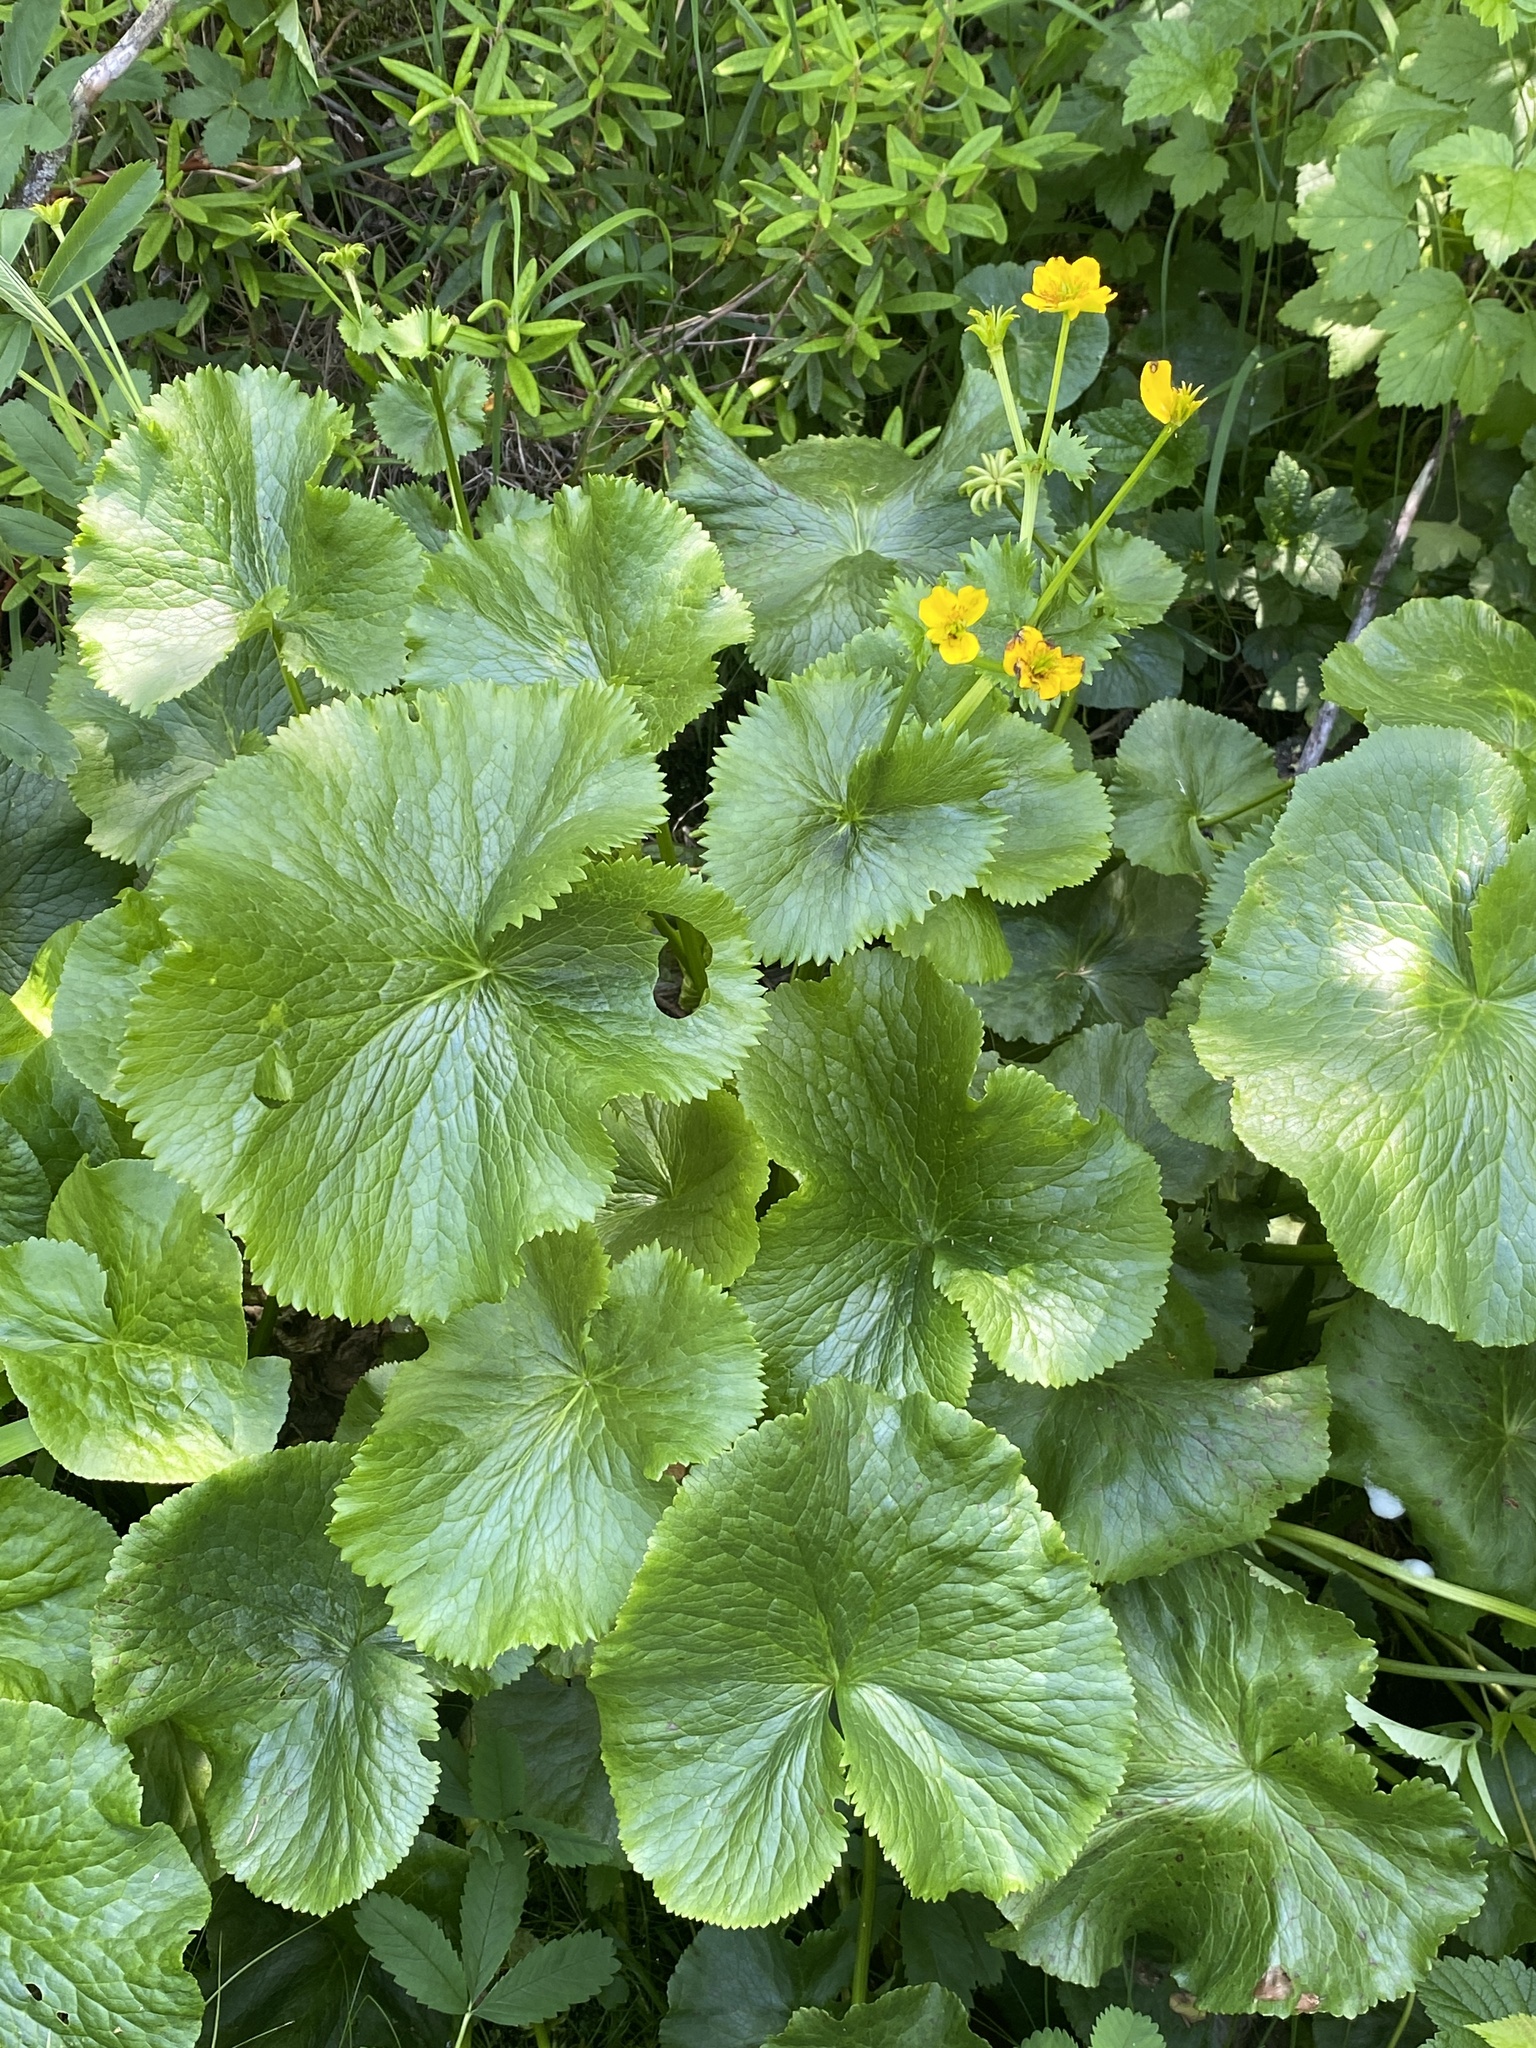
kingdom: Plantae
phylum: Tracheophyta
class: Magnoliopsida
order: Ranunculales
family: Ranunculaceae
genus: Caltha
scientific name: Caltha palustris
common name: Marsh marigold
